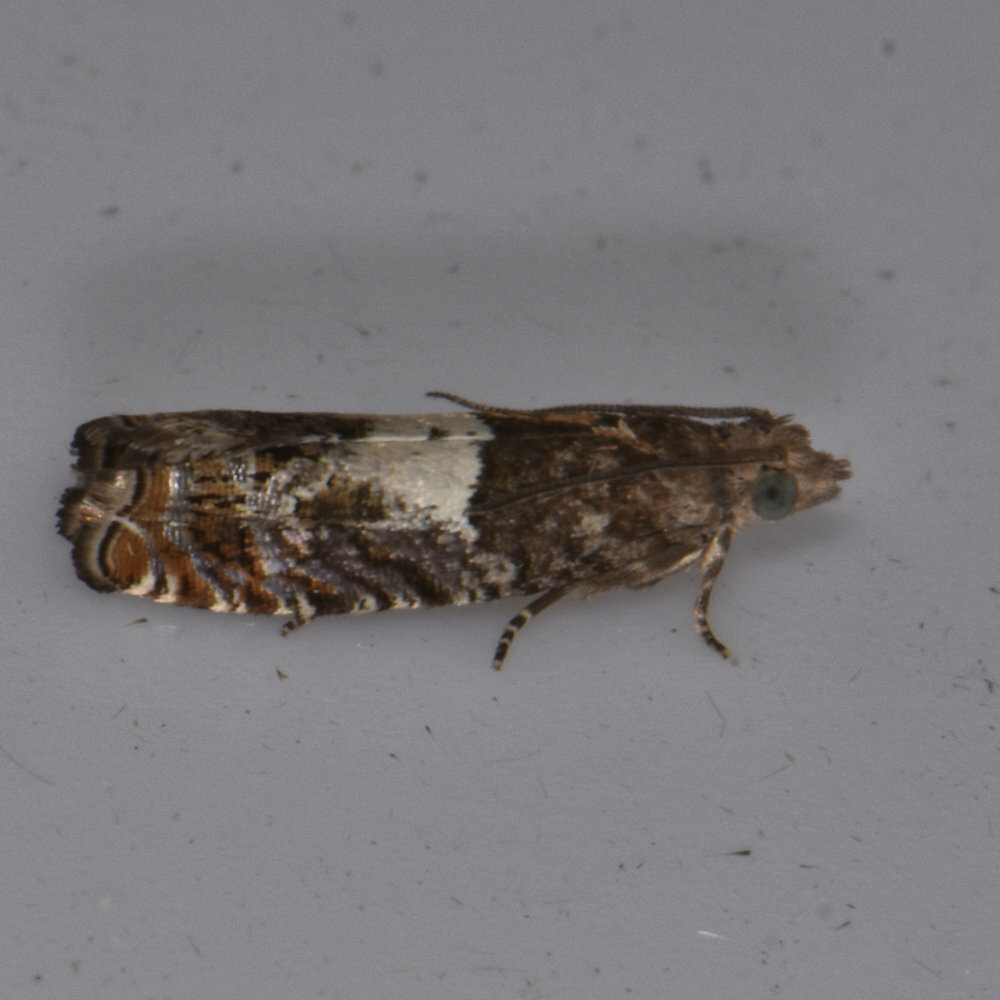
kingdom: Animalia
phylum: Arthropoda
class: Insecta
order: Lepidoptera
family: Tortricidae
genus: Epinotia
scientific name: Epinotia transmissana
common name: Walker's epinotia moth
